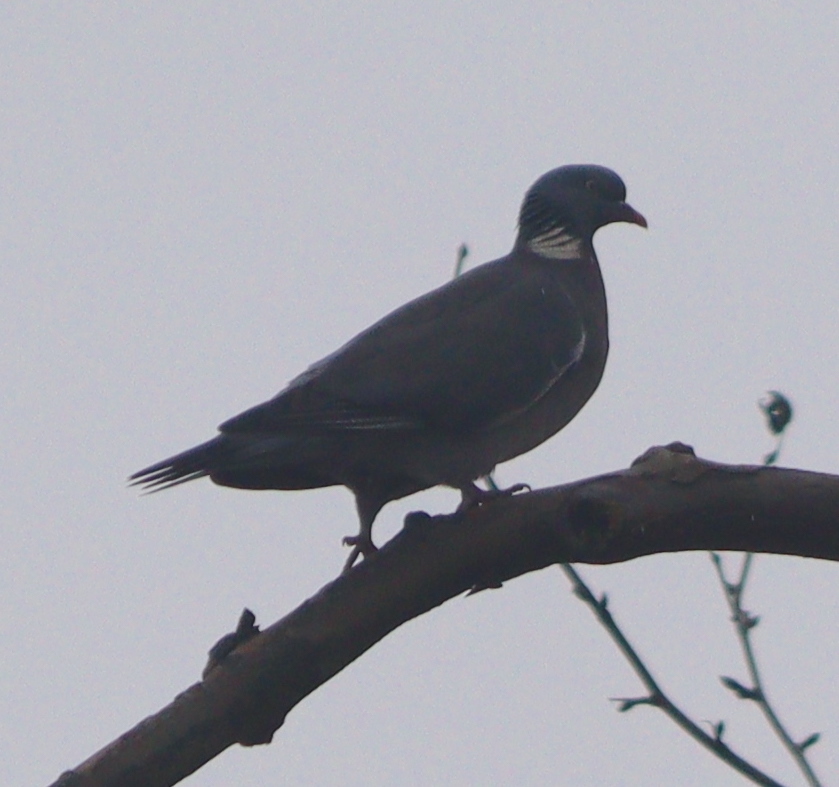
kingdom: Animalia
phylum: Chordata
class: Aves
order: Columbiformes
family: Columbidae
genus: Columba
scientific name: Columba palumbus
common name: Common wood pigeon
